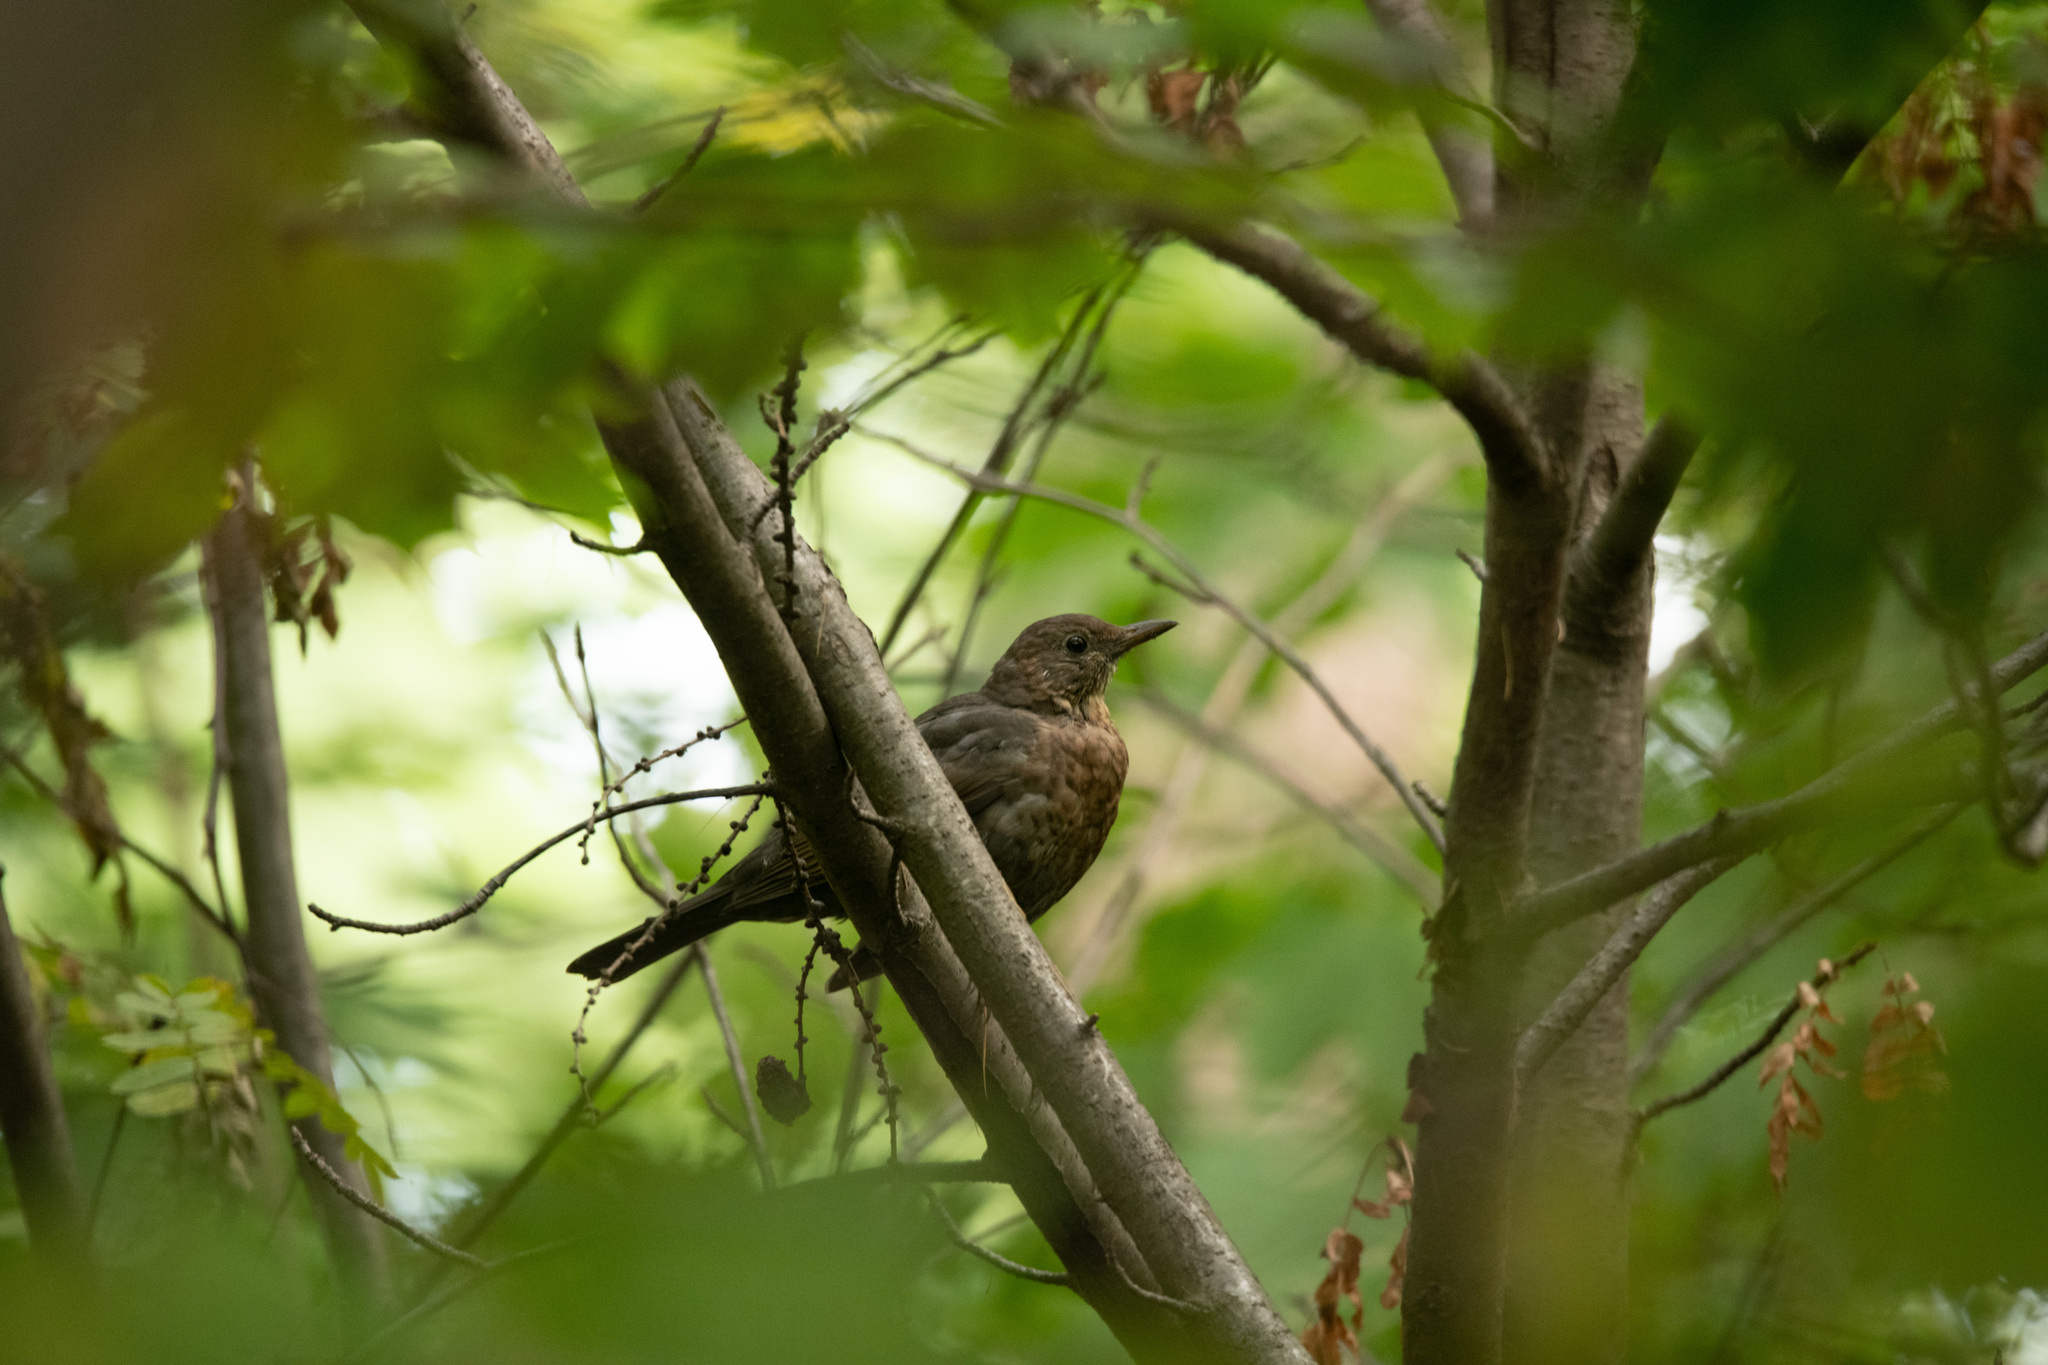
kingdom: Animalia
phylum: Chordata
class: Aves
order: Passeriformes
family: Turdidae
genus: Turdus
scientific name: Turdus merula
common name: Common blackbird
